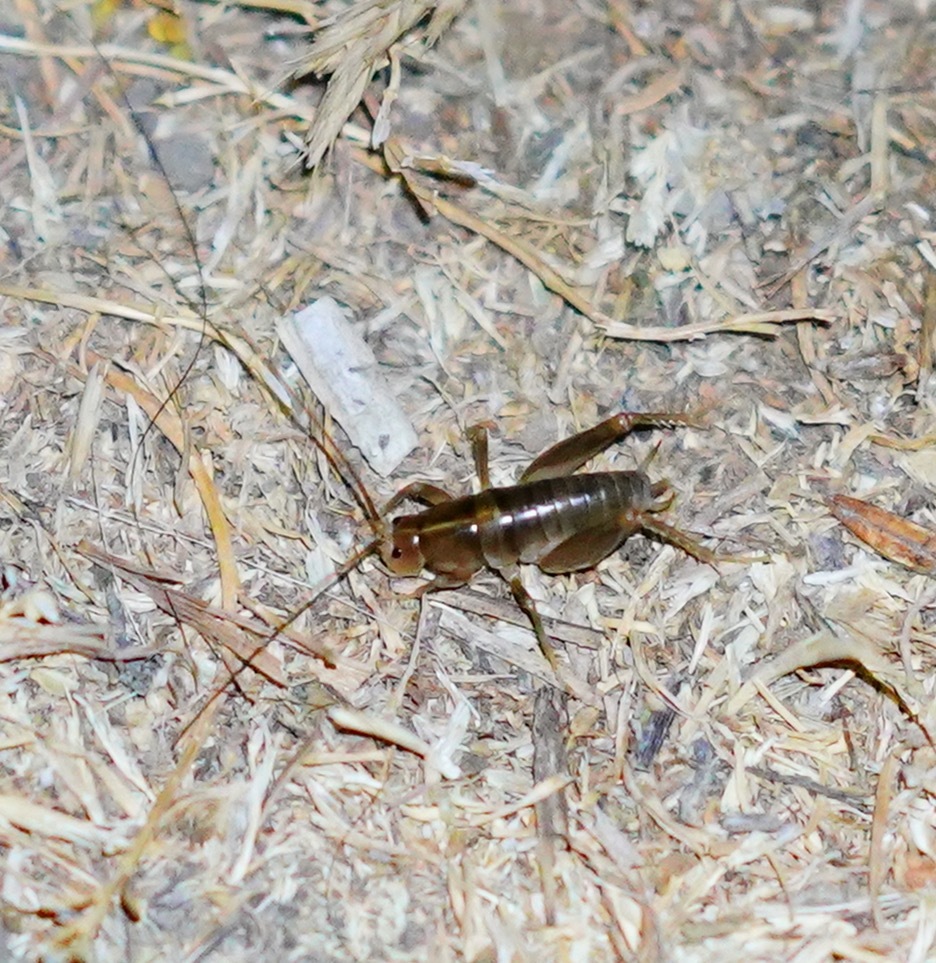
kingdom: Animalia
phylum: Arthropoda
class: Insecta
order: Orthoptera
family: Rhaphidophoridae
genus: Ceuthophilus
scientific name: Ceuthophilus californianus
